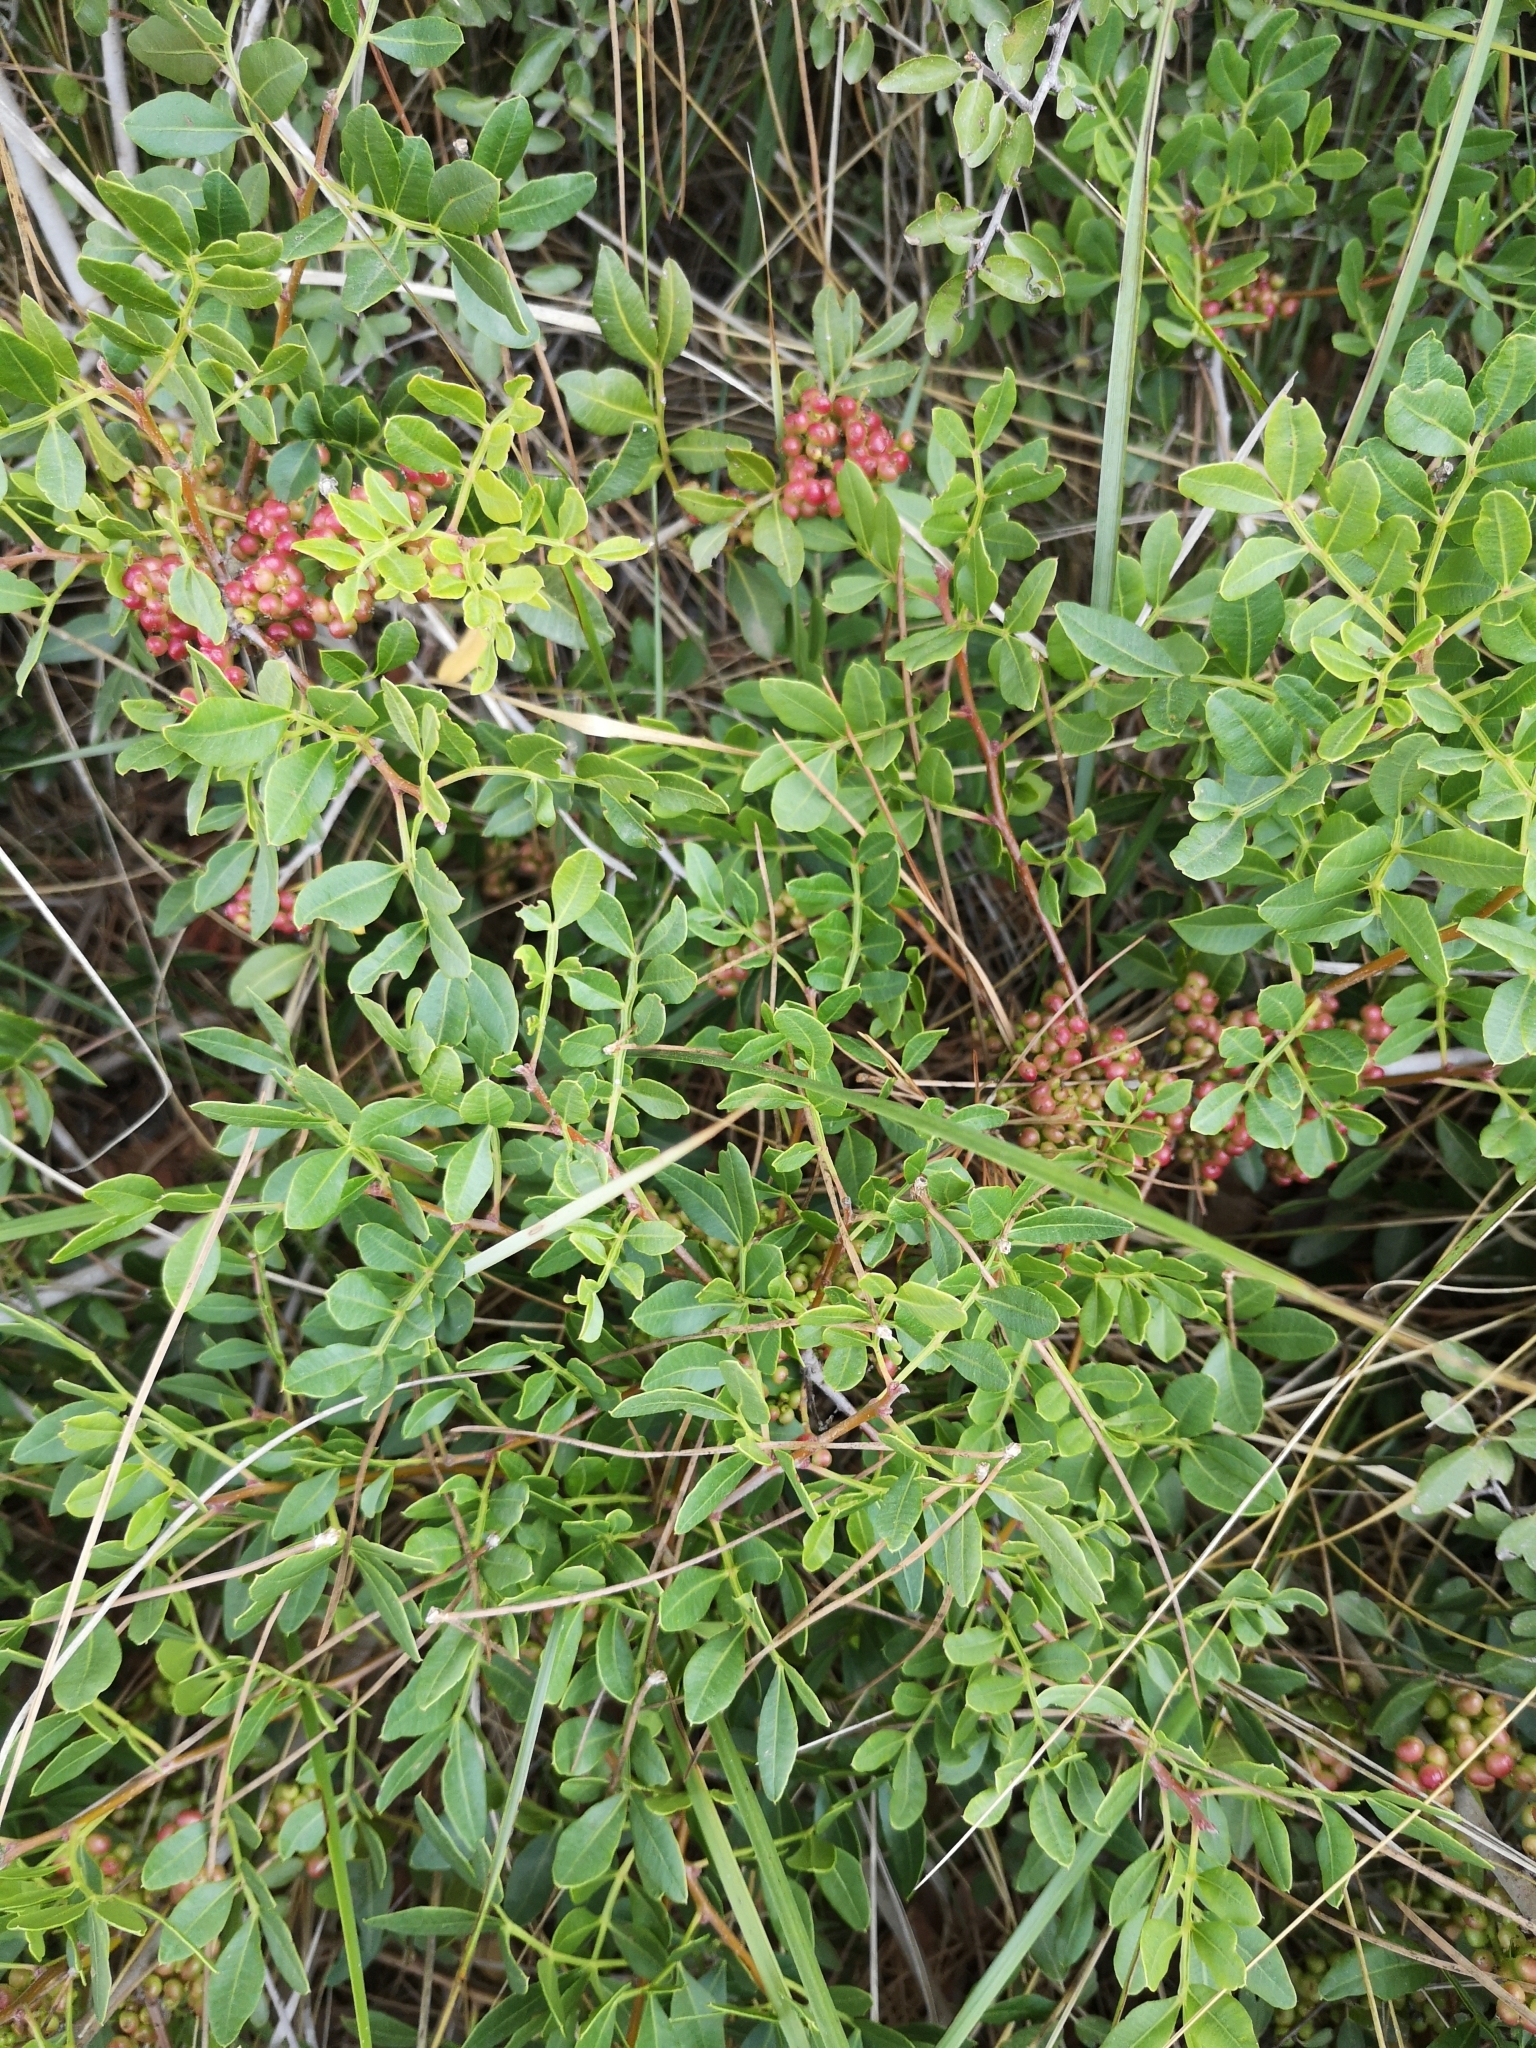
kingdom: Plantae
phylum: Tracheophyta
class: Magnoliopsida
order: Sapindales
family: Anacardiaceae
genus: Pistacia
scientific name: Pistacia lentiscus
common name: Lentisk
